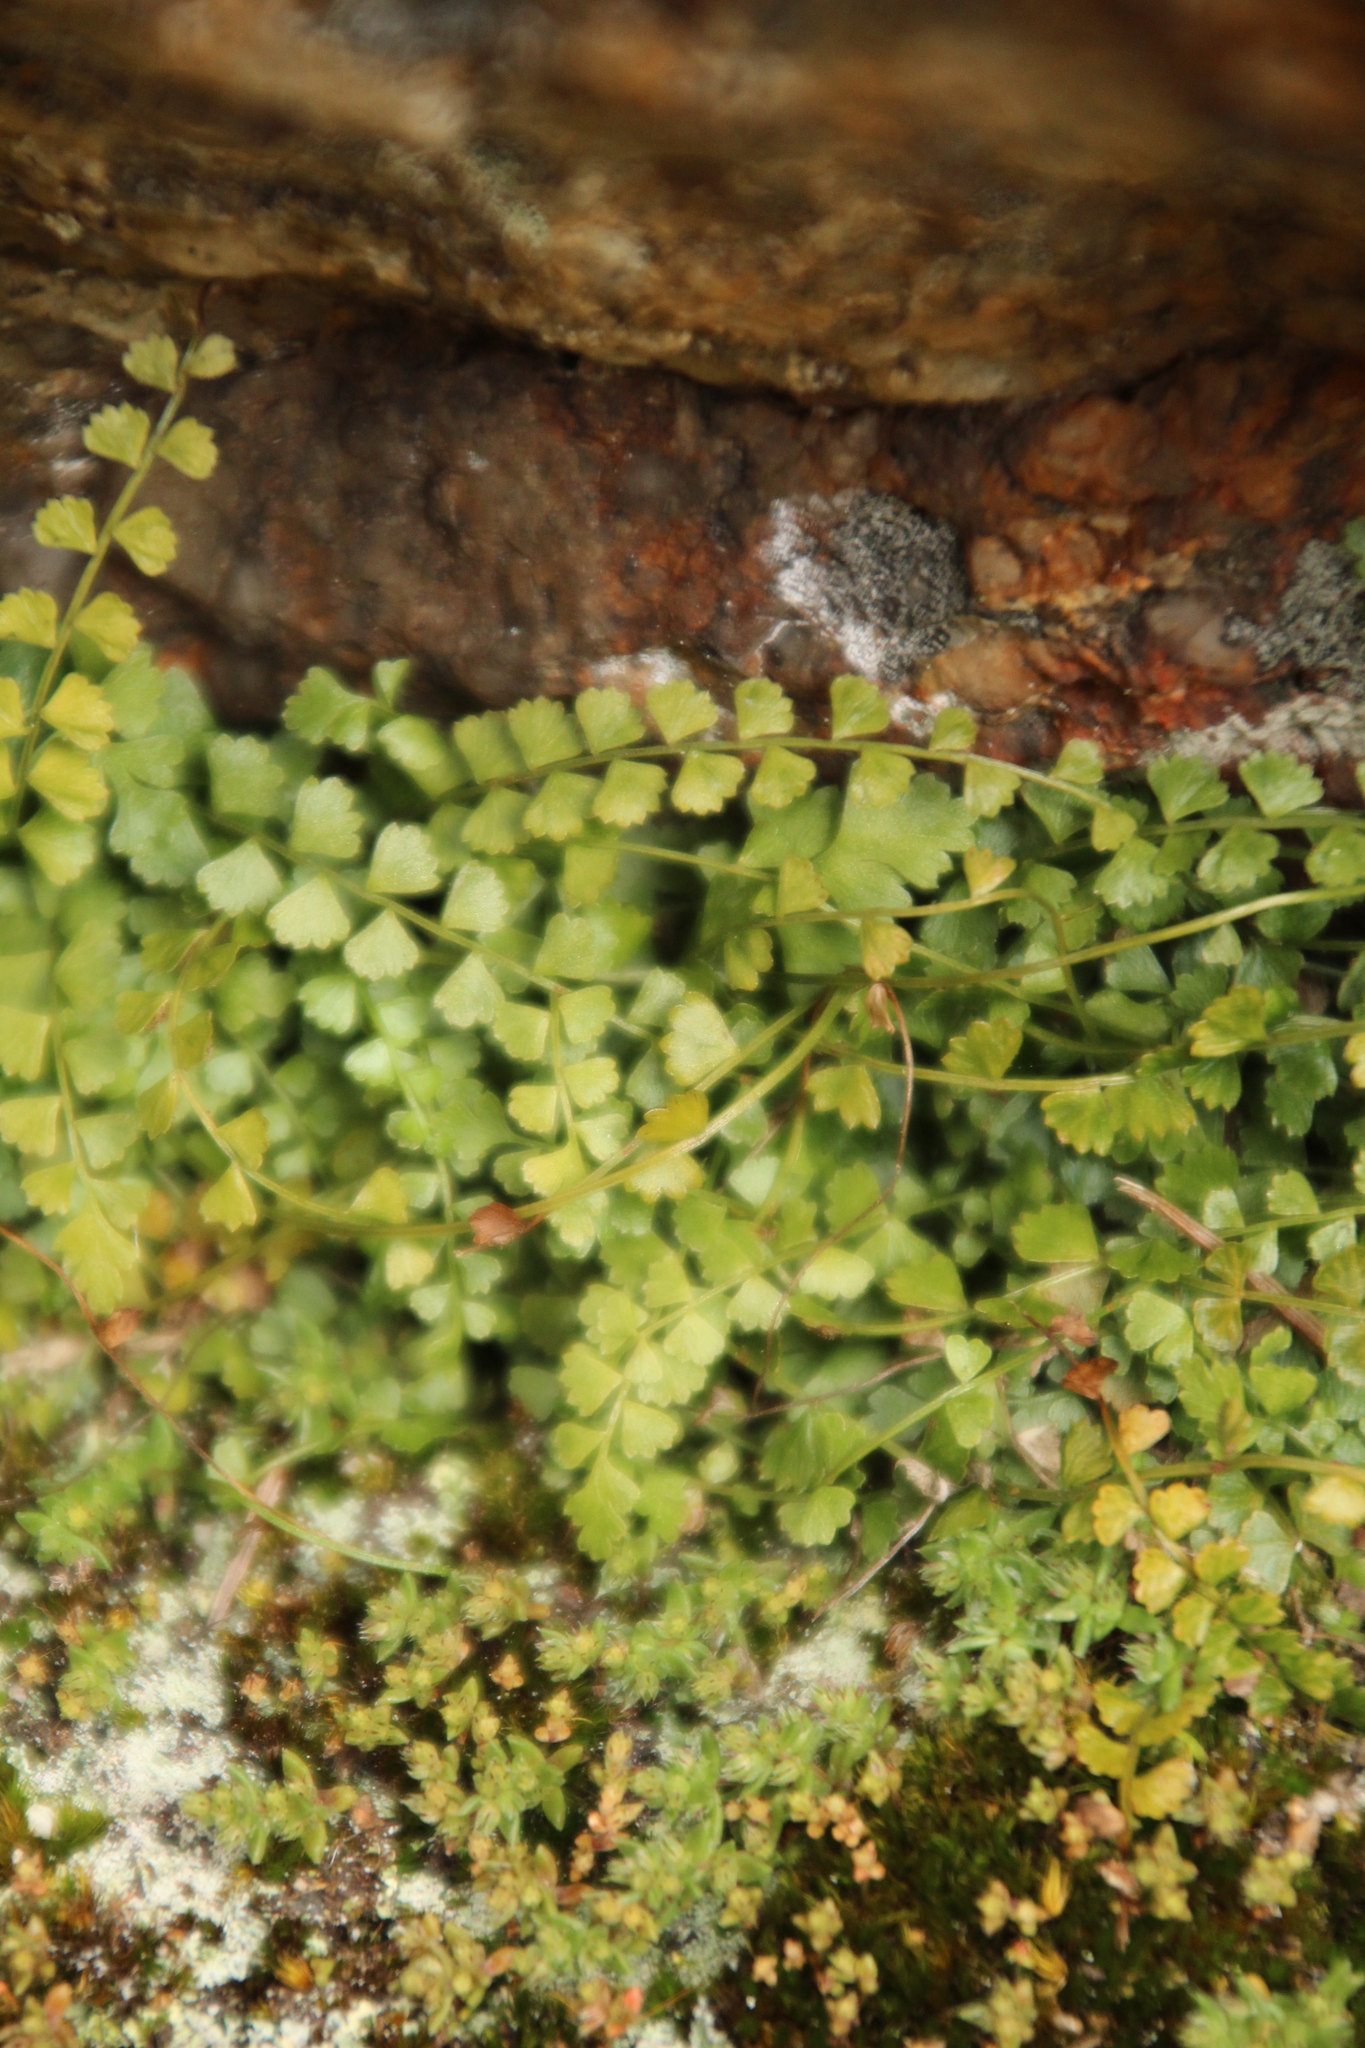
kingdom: Plantae
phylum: Tracheophyta
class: Polypodiopsida
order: Polypodiales
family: Aspleniaceae
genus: Asplenium
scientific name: Asplenium flabellifolium
